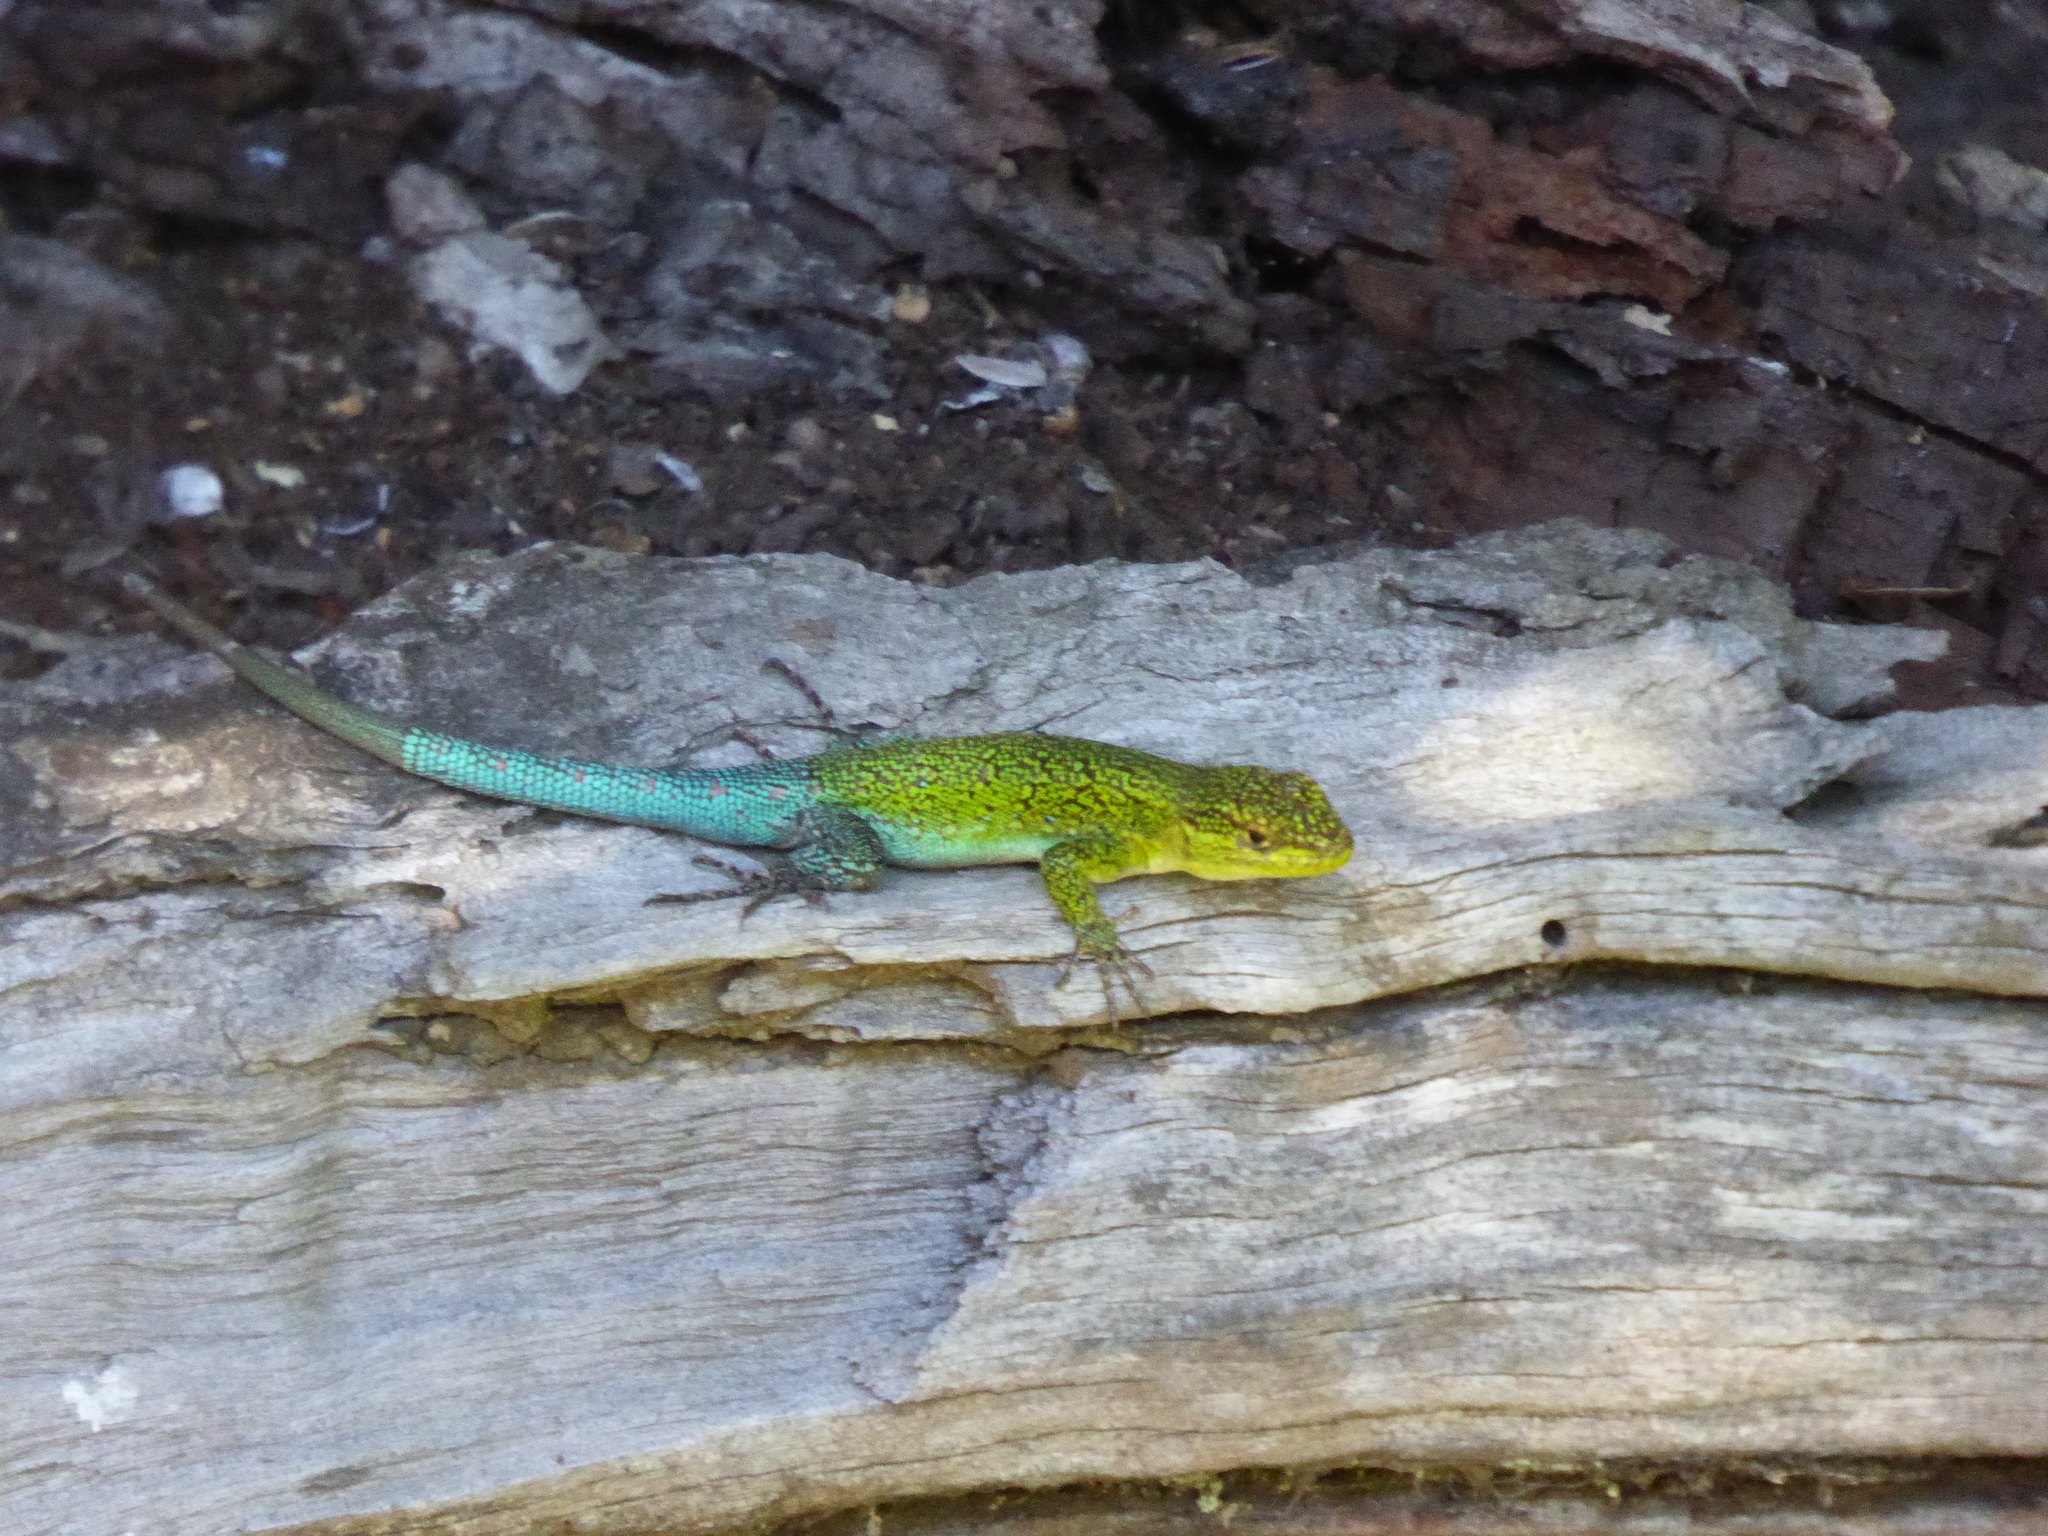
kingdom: Animalia
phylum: Chordata
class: Squamata
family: Liolaemidae
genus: Liolaemus
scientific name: Liolaemus tenuis
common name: Thin tree iguana
